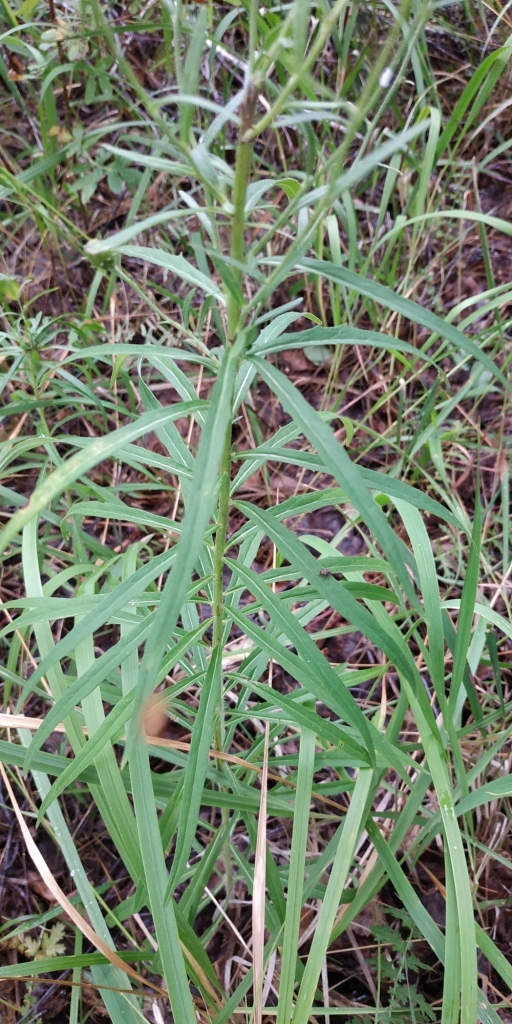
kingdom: Plantae
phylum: Tracheophyta
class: Magnoliopsida
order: Asterales
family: Asteraceae
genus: Hieracium
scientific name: Hieracium umbellatum
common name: Northern hawkweed
